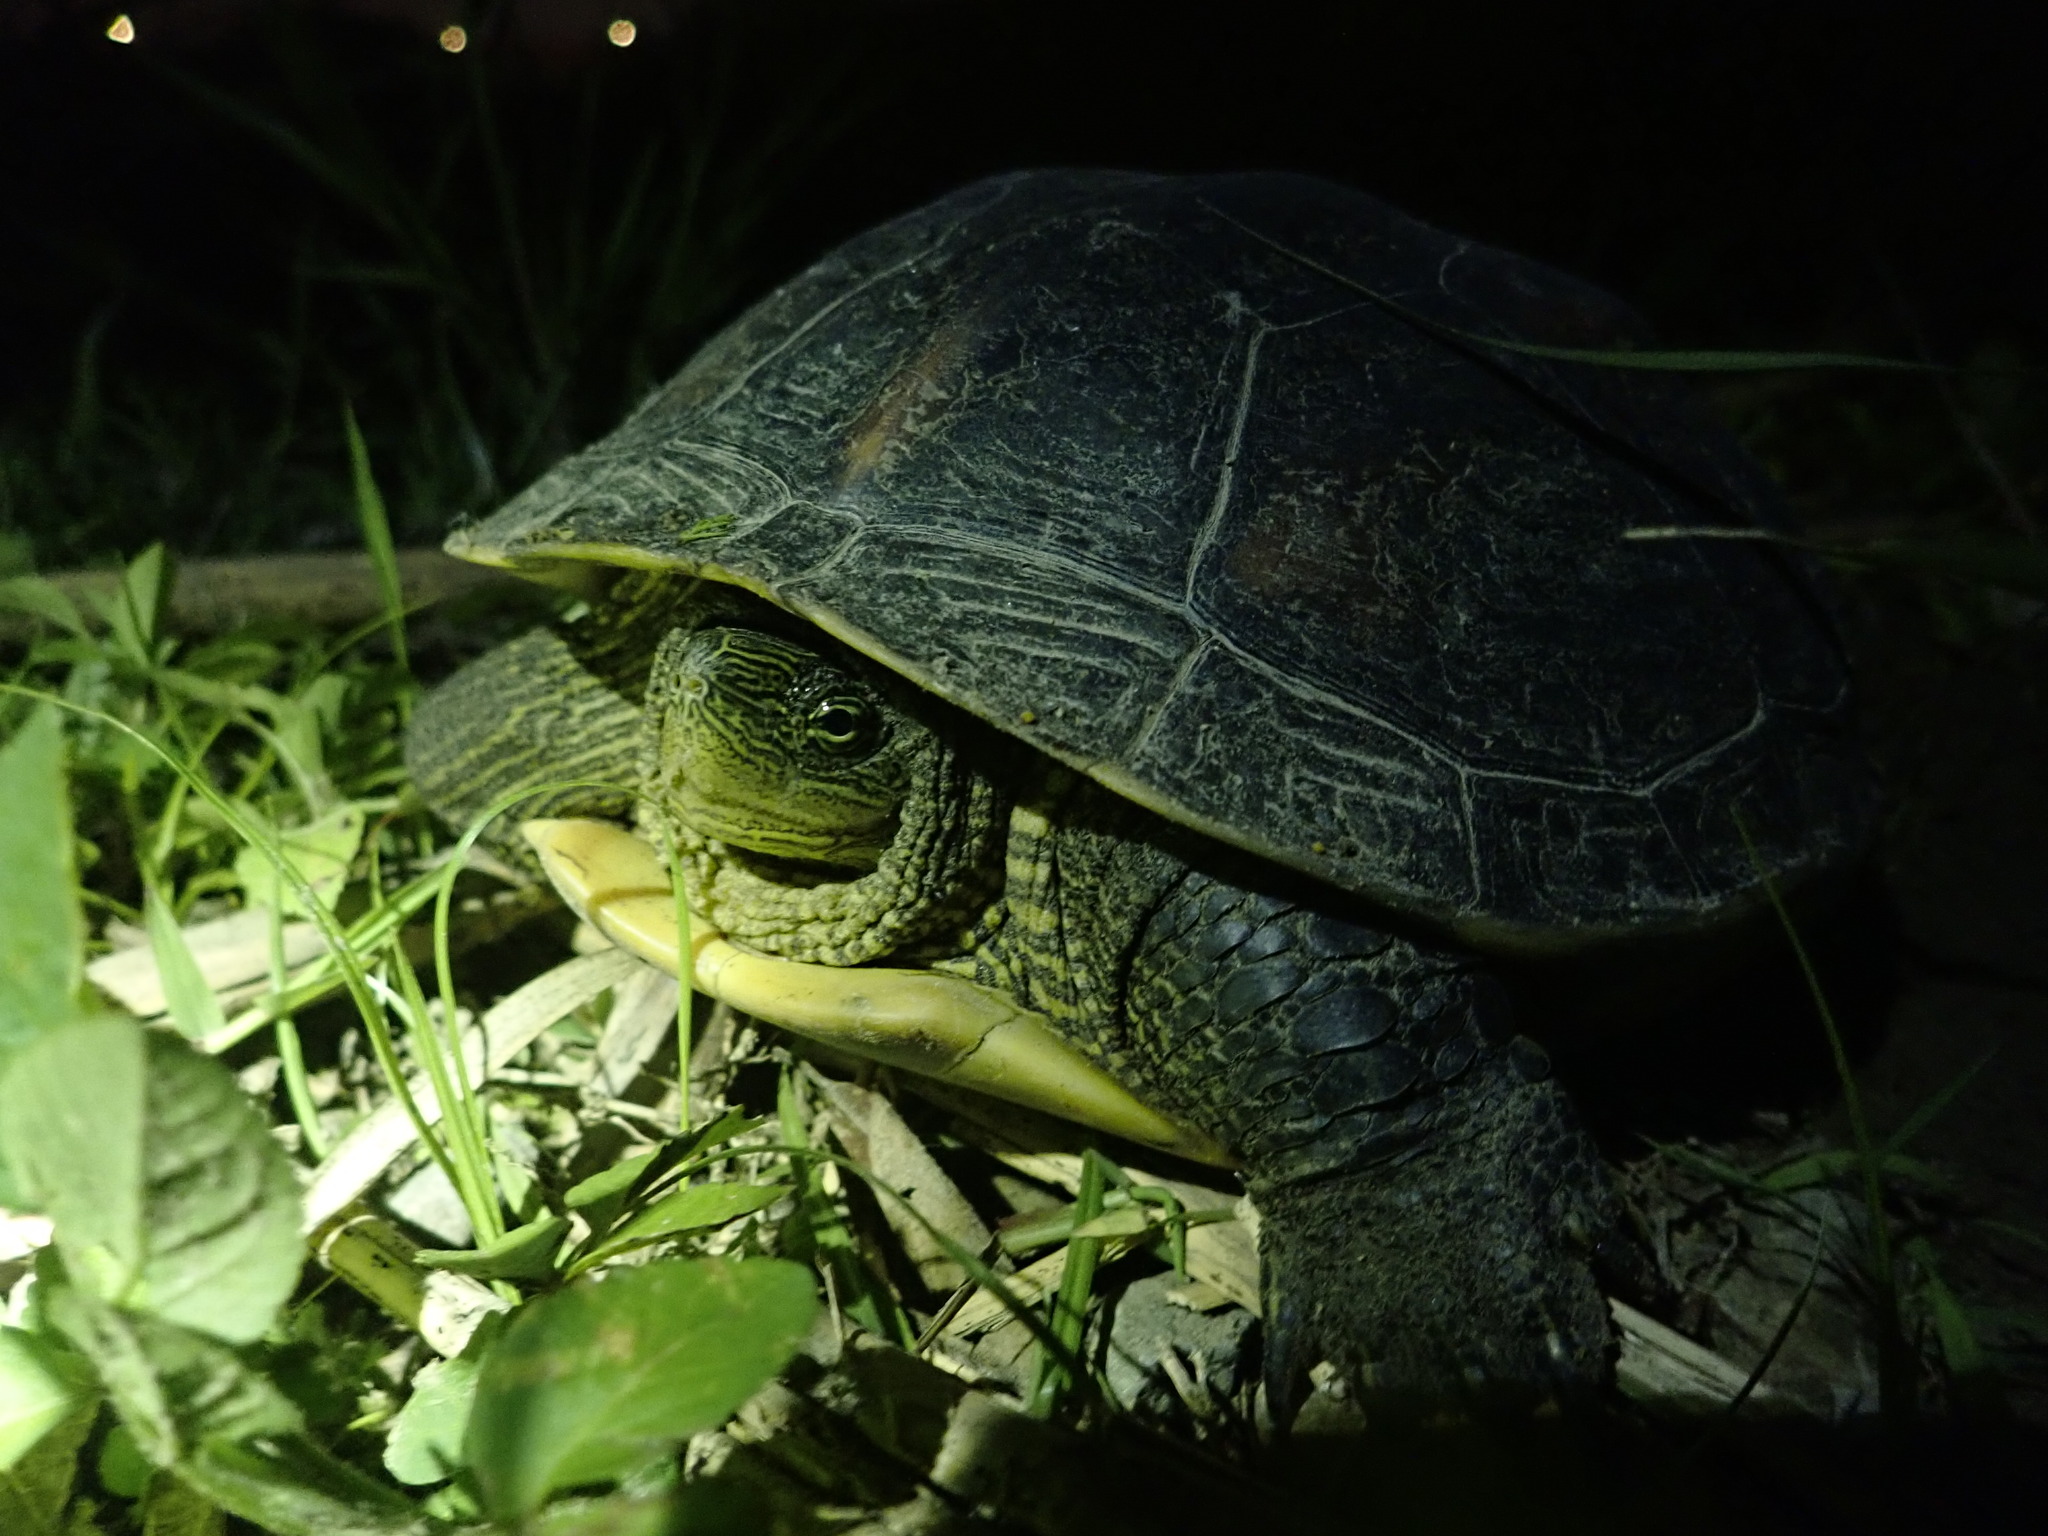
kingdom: Animalia
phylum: Chordata
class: Testudines
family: Geoemydidae
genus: Mauremys
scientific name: Mauremys sinensis
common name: Chinese stripe-necked turtle
